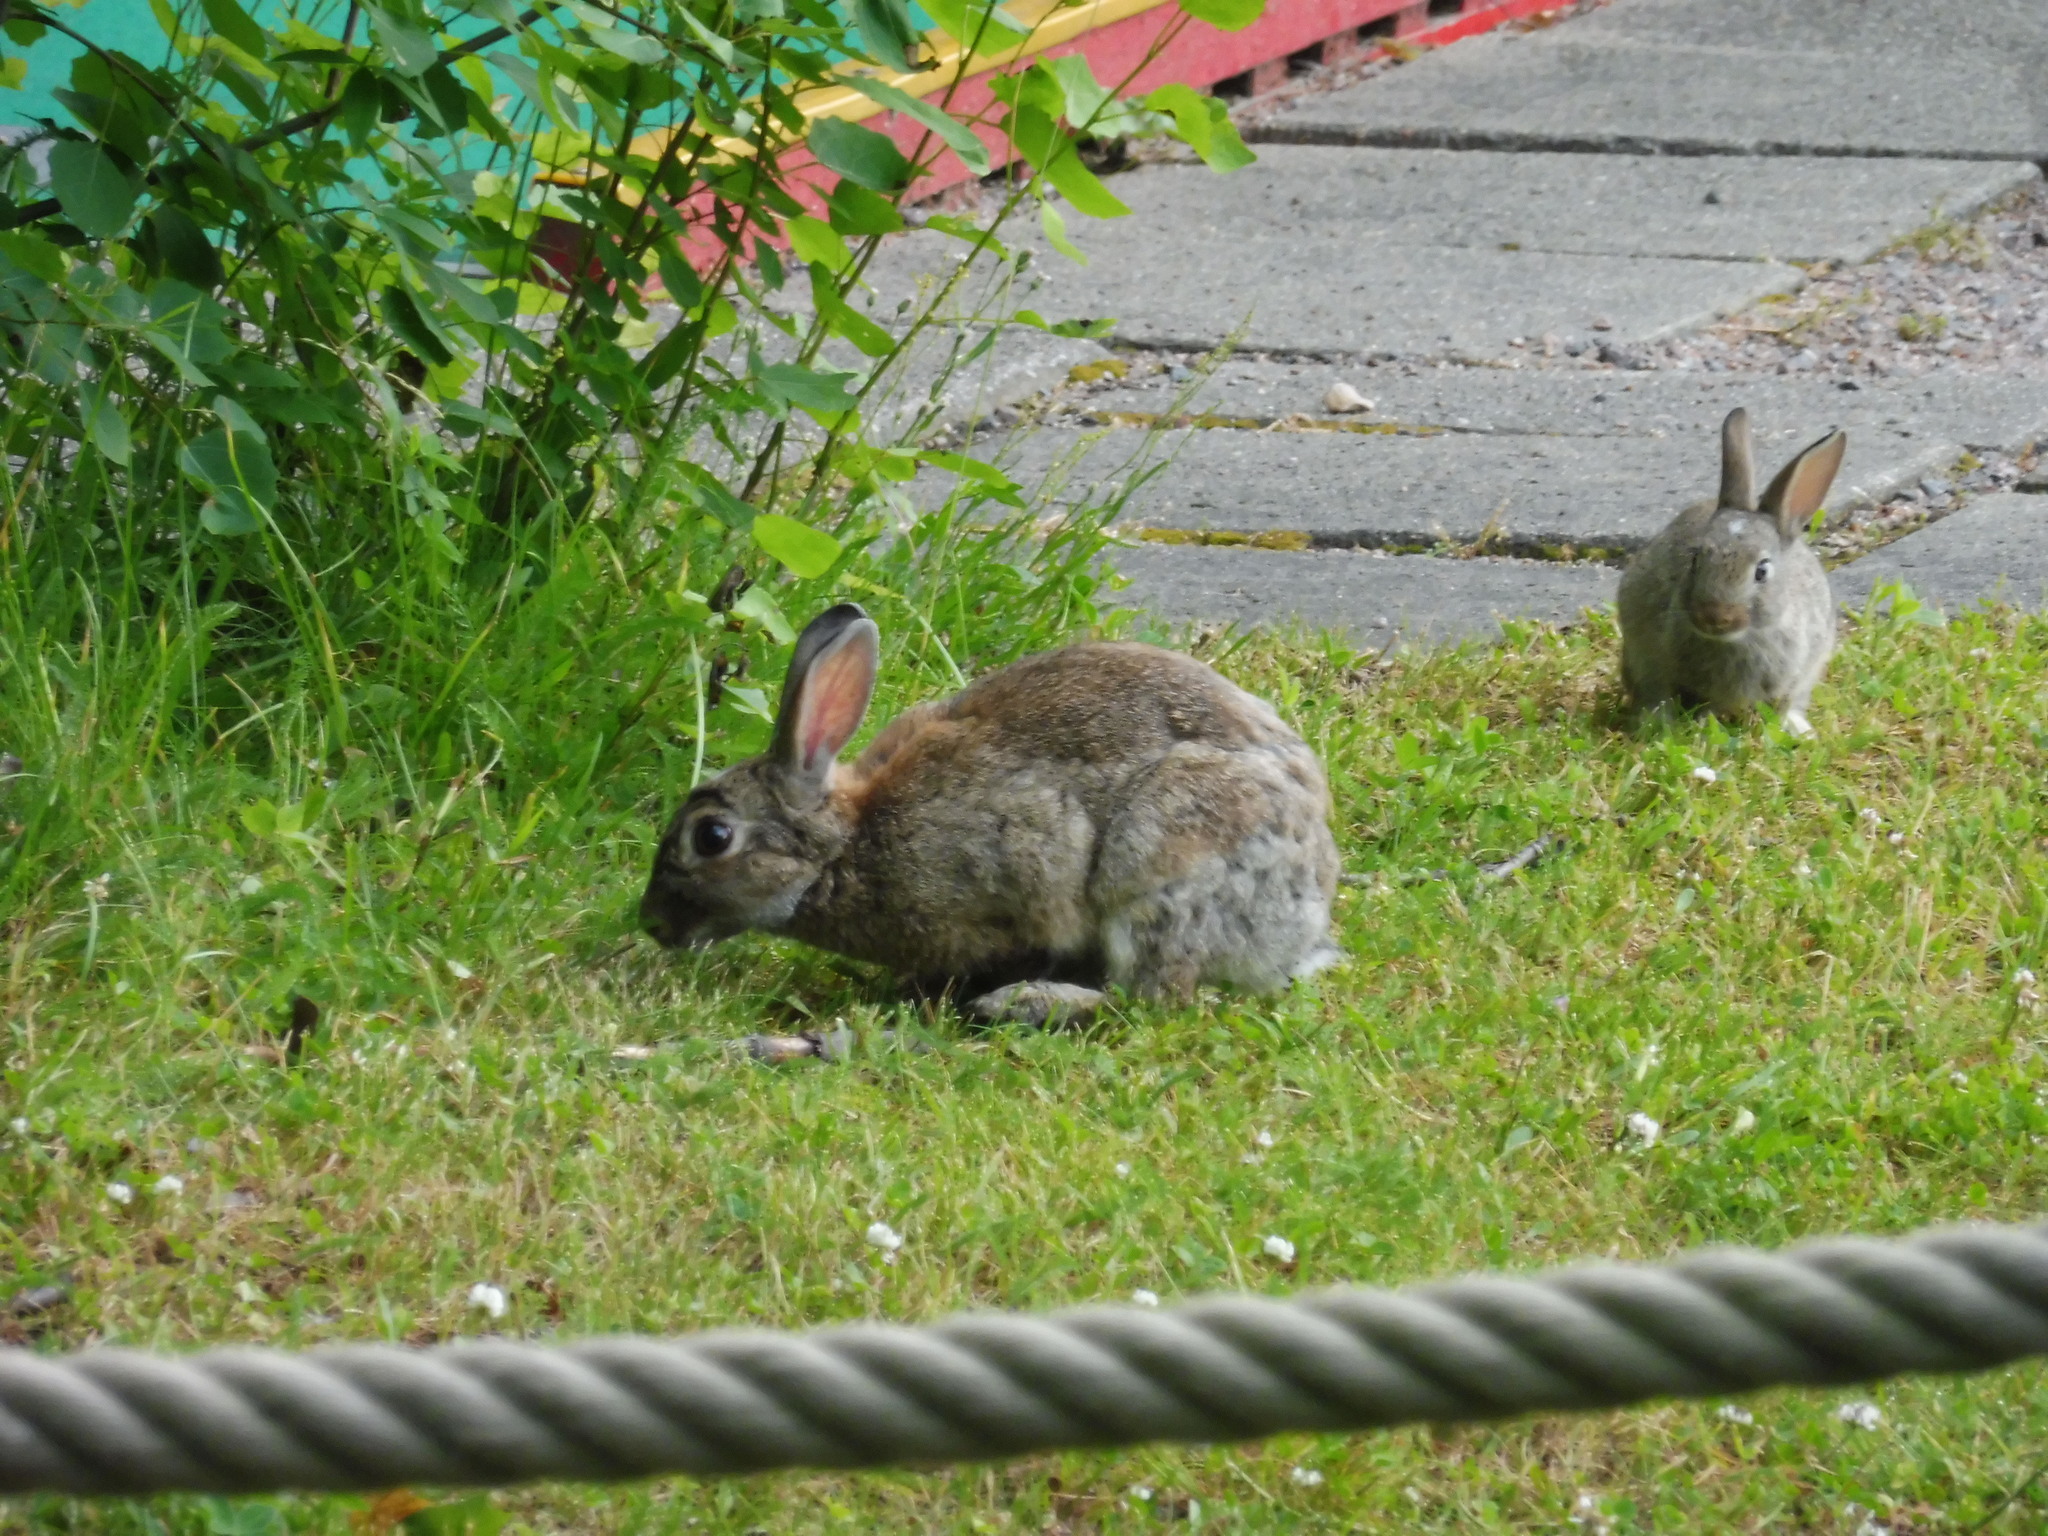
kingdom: Animalia
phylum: Chordata
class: Mammalia
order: Lagomorpha
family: Leporidae
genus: Oryctolagus
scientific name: Oryctolagus cuniculus
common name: European rabbit
